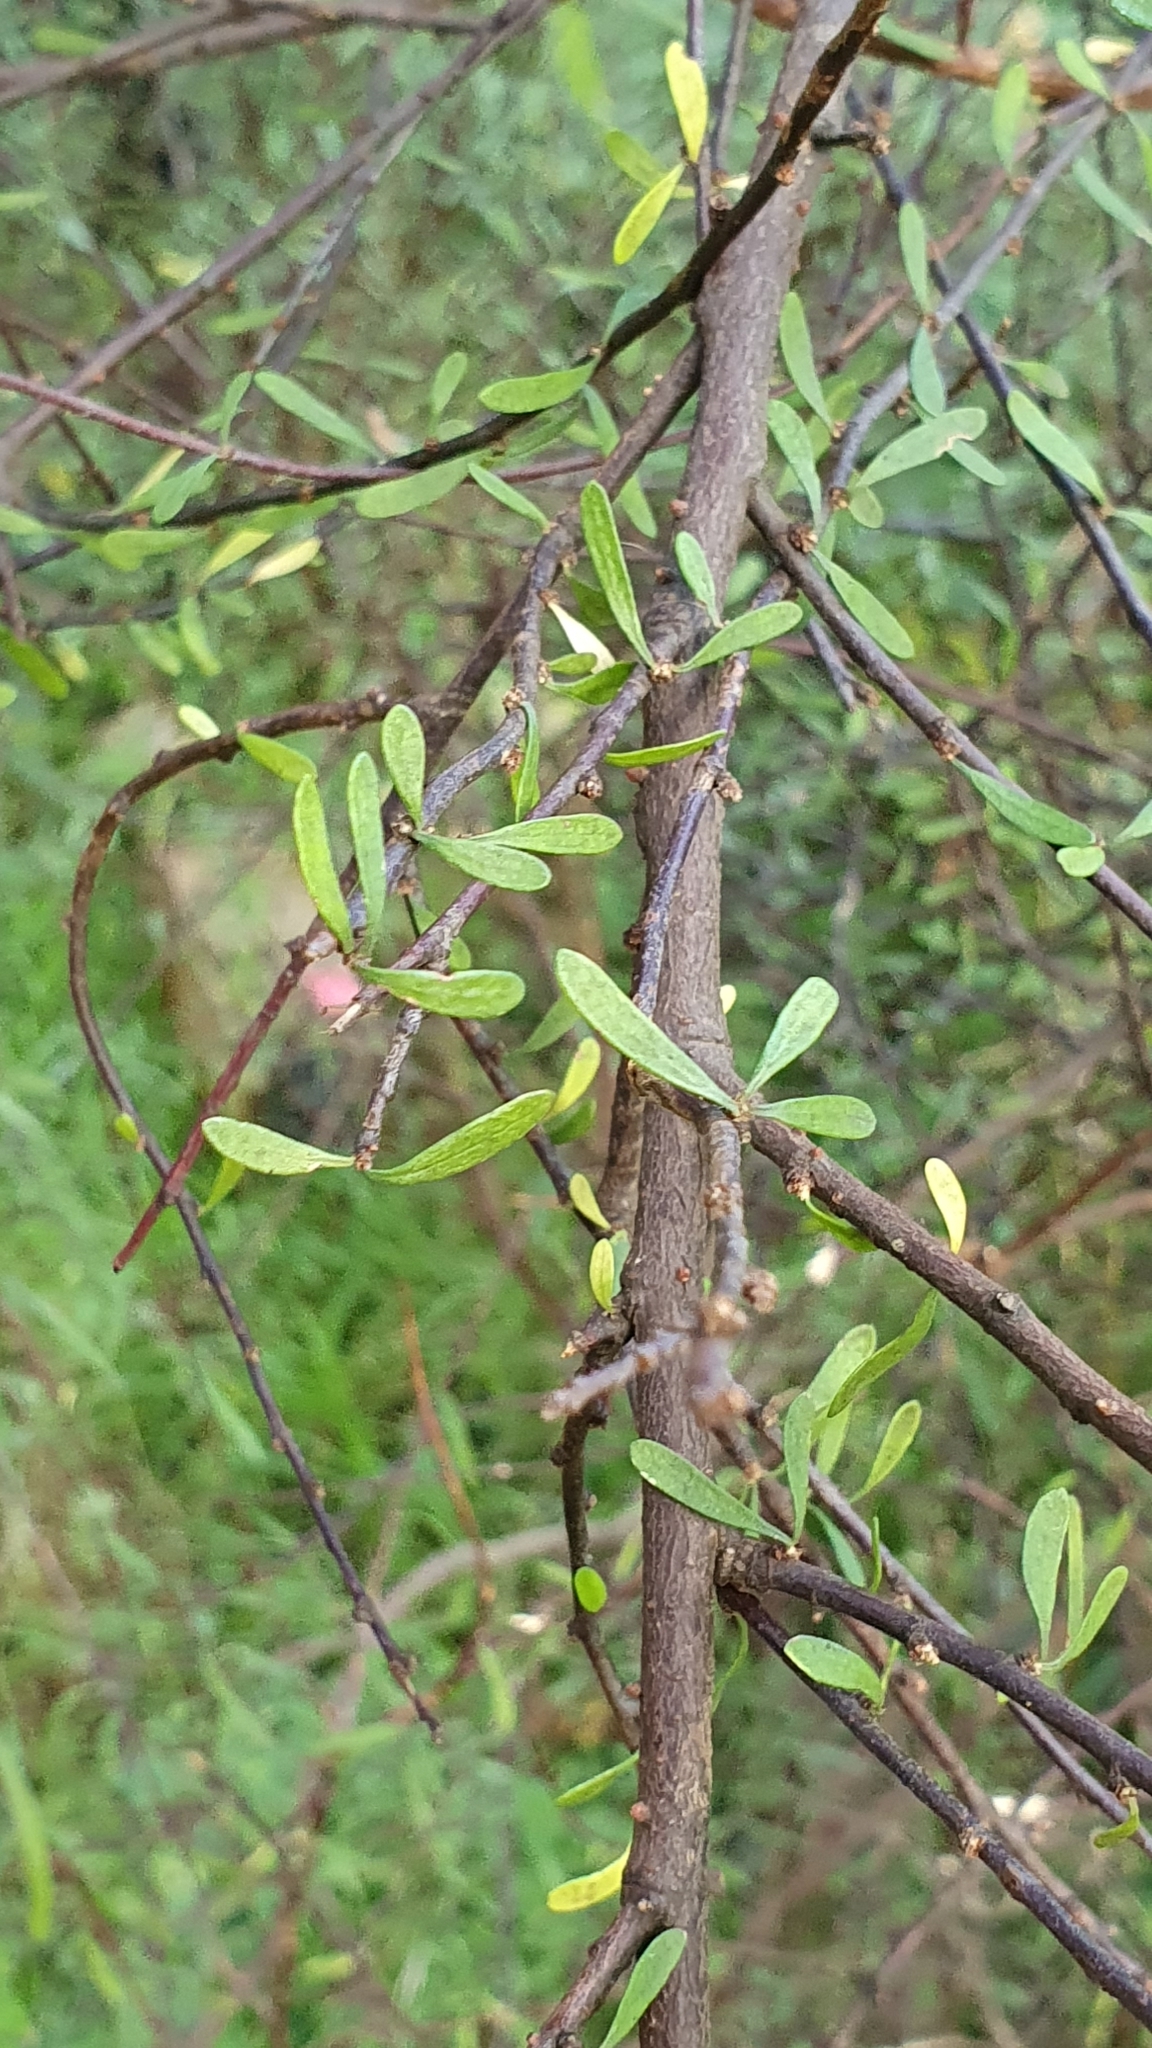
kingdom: Plantae
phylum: Tracheophyta
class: Magnoliopsida
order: Malvales
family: Malvaceae
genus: Plagianthus
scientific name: Plagianthus divaricatus
